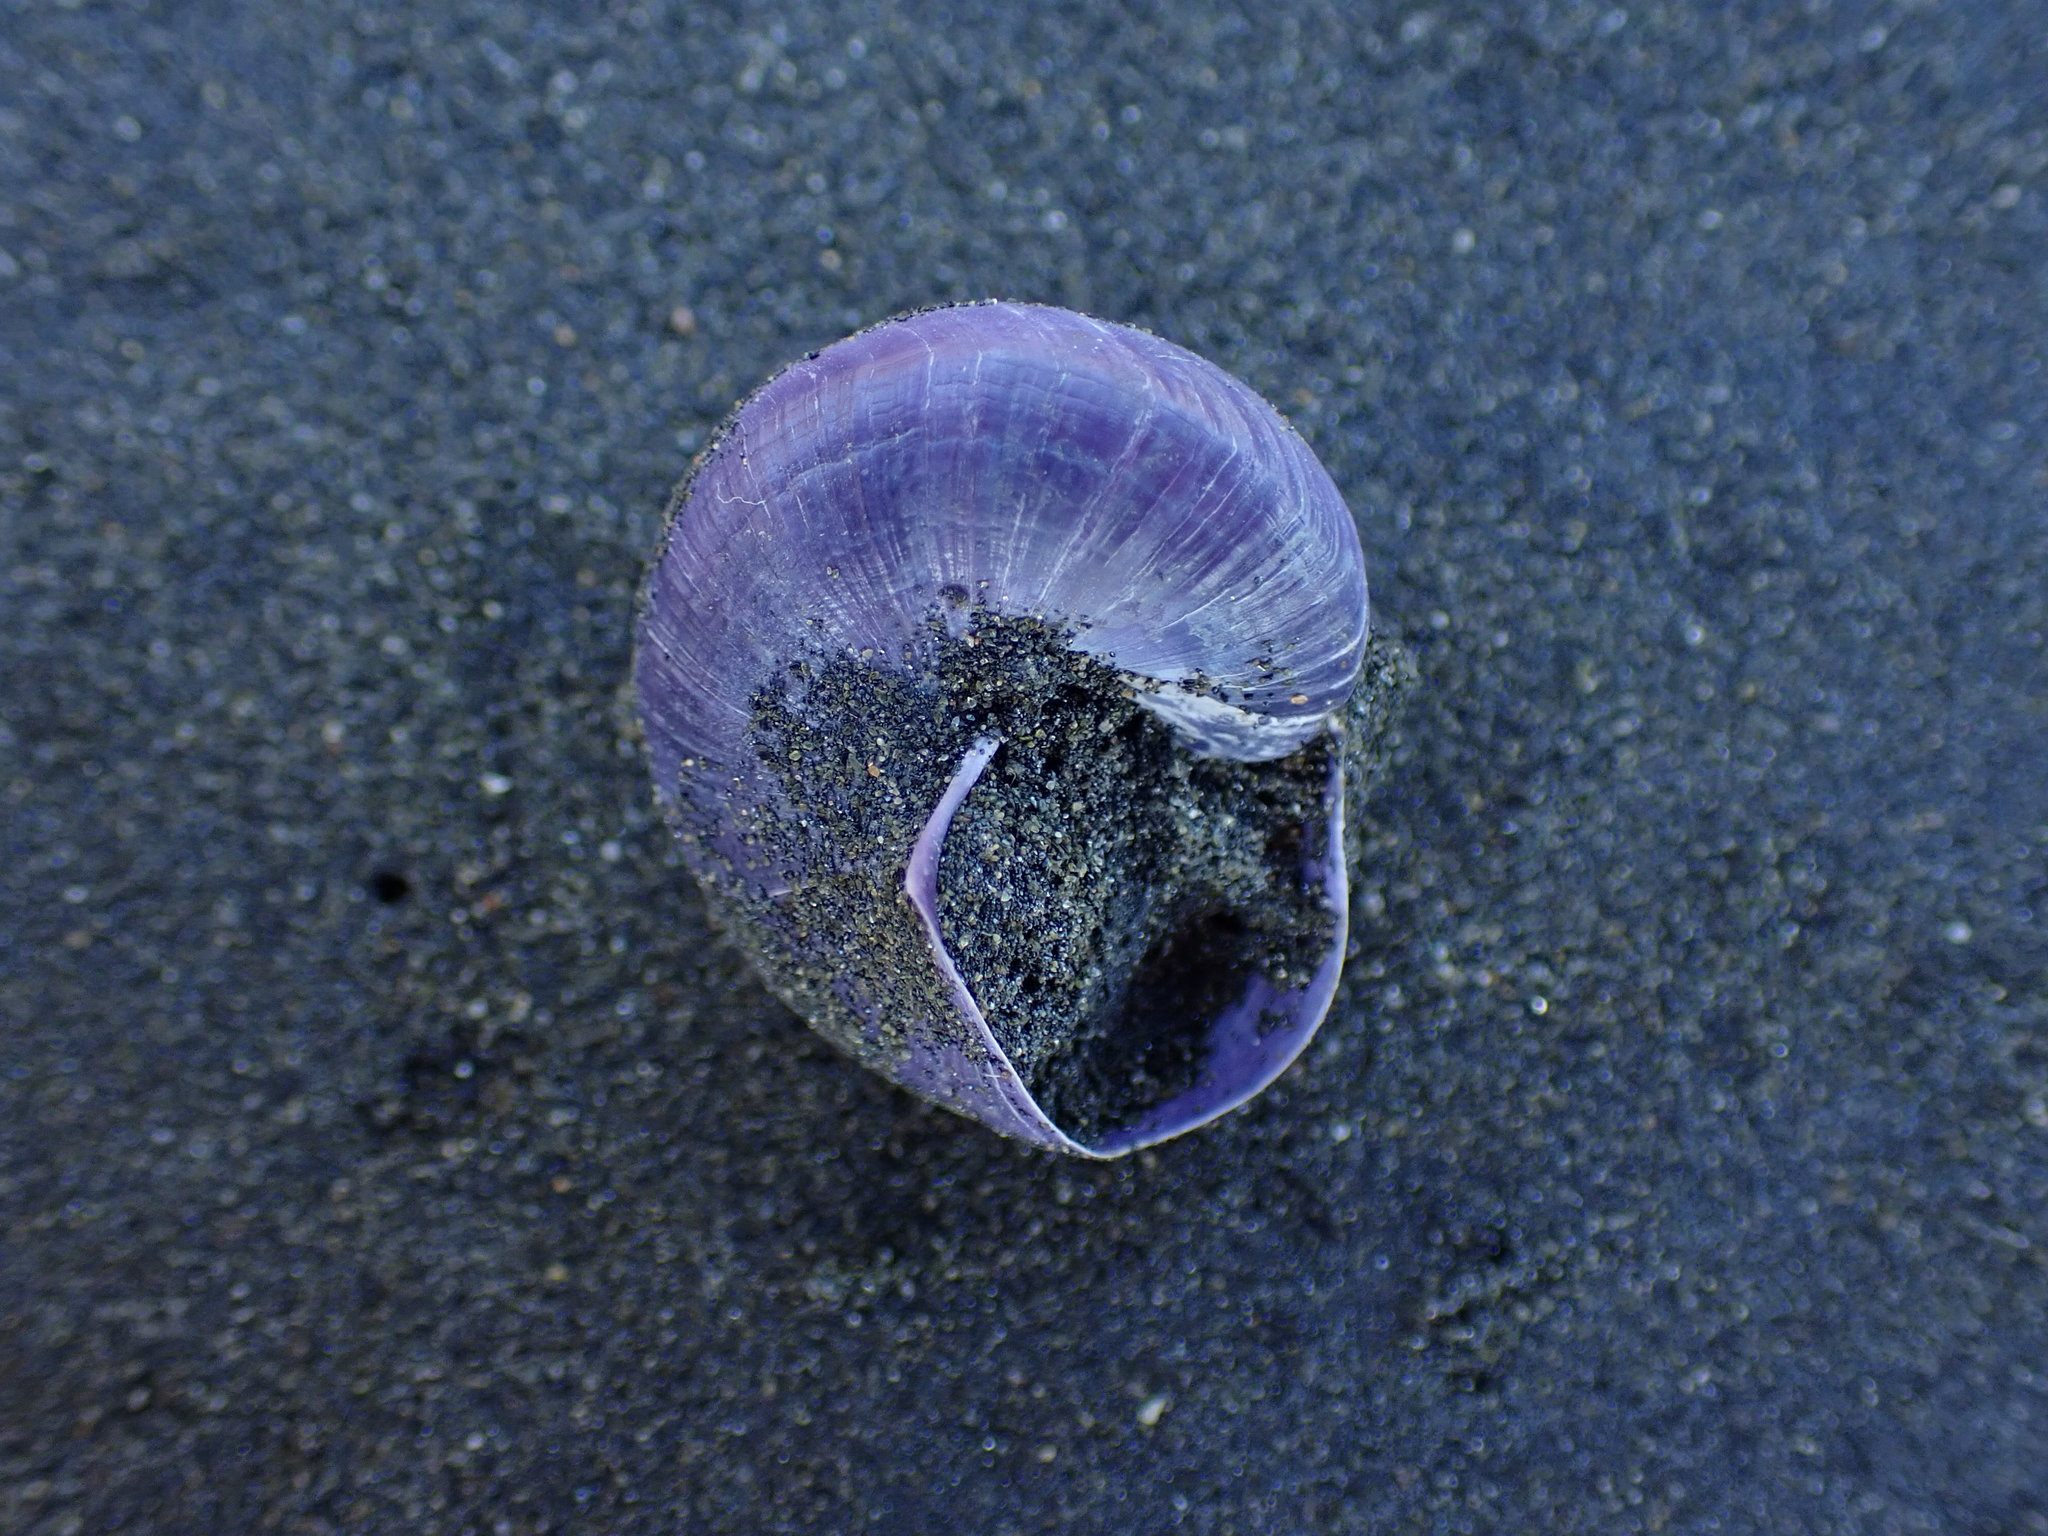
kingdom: Animalia
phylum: Mollusca
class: Gastropoda
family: Epitoniidae
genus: Janthina
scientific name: Janthina janthina
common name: Common janthina
